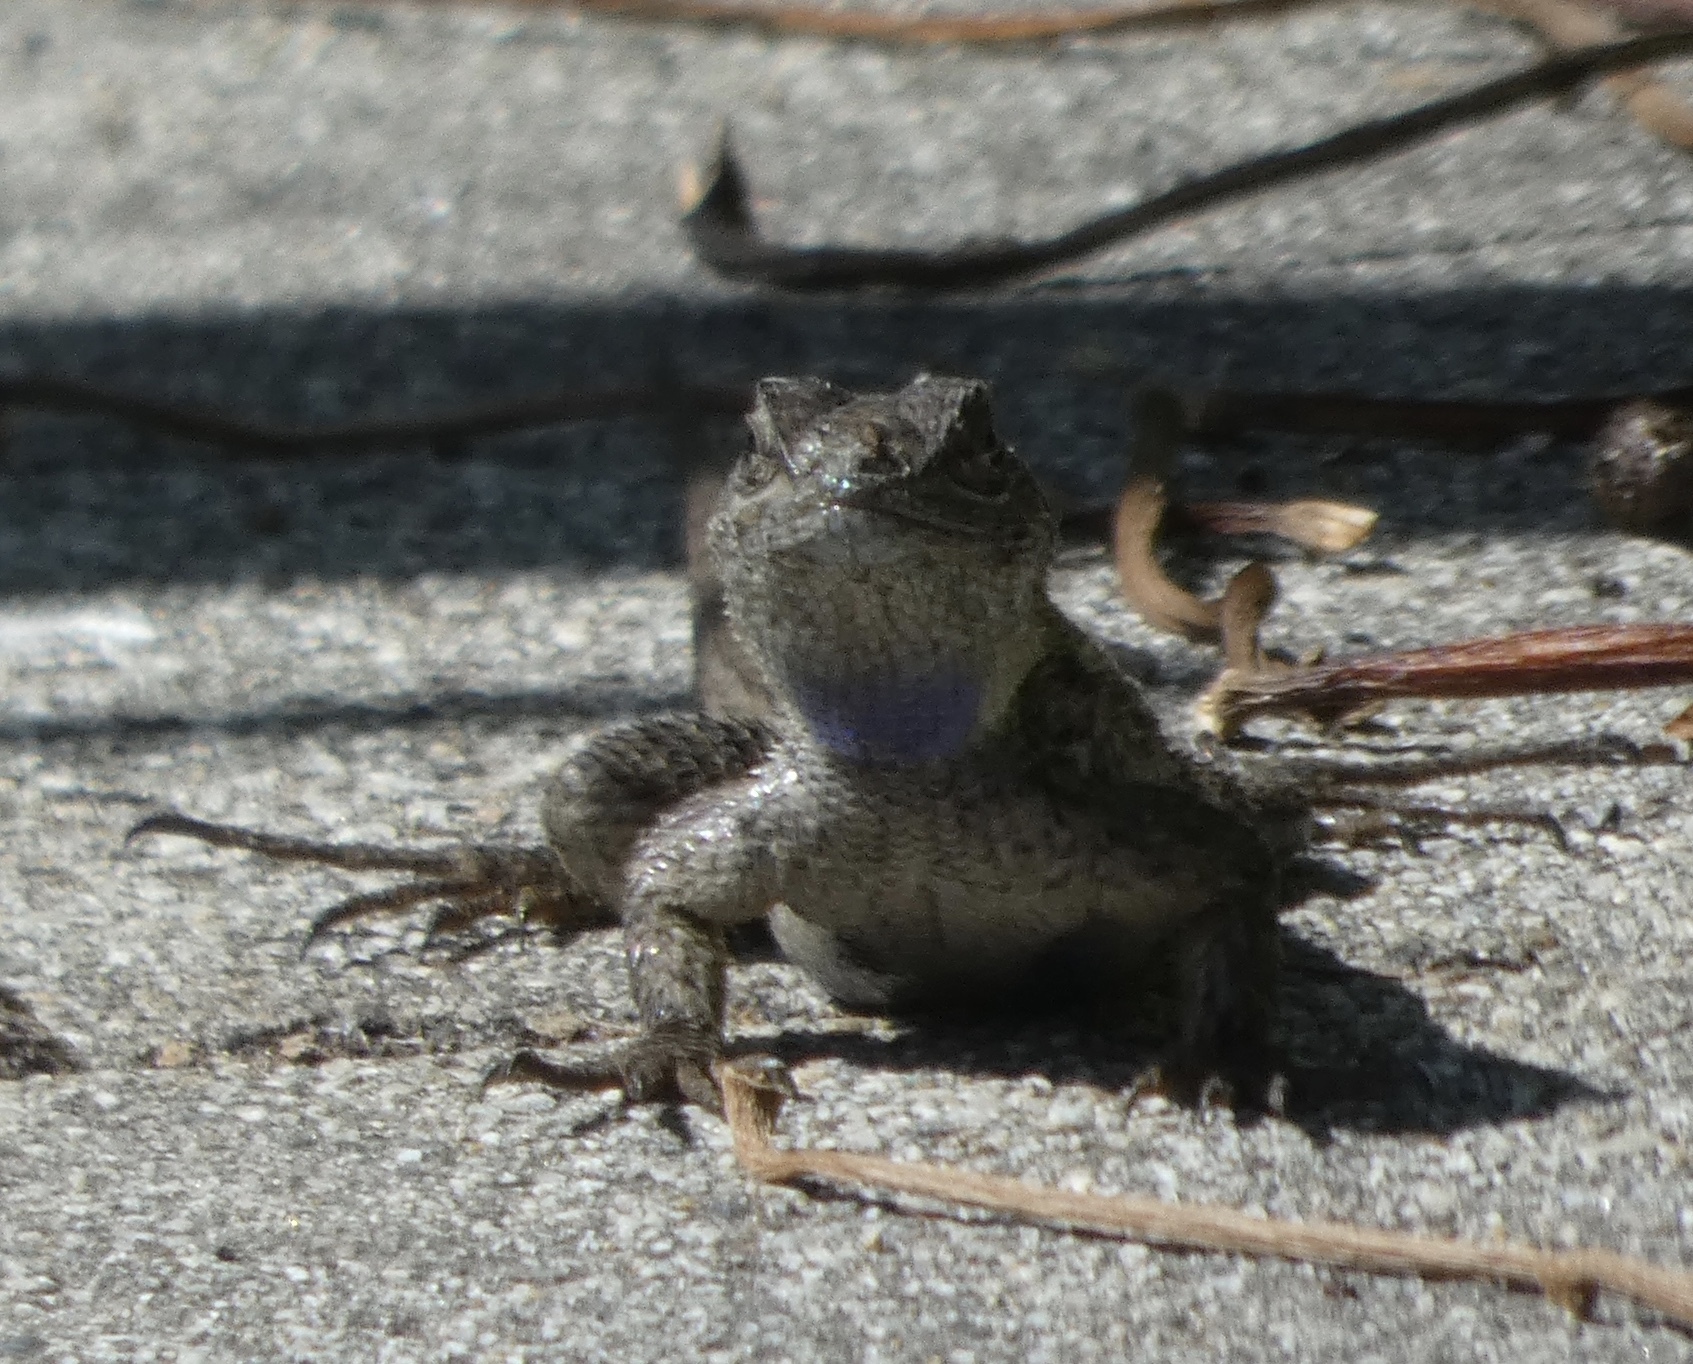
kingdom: Animalia
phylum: Chordata
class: Squamata
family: Phrynosomatidae
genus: Sceloporus
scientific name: Sceloporus occidentalis
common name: Western fence lizard
